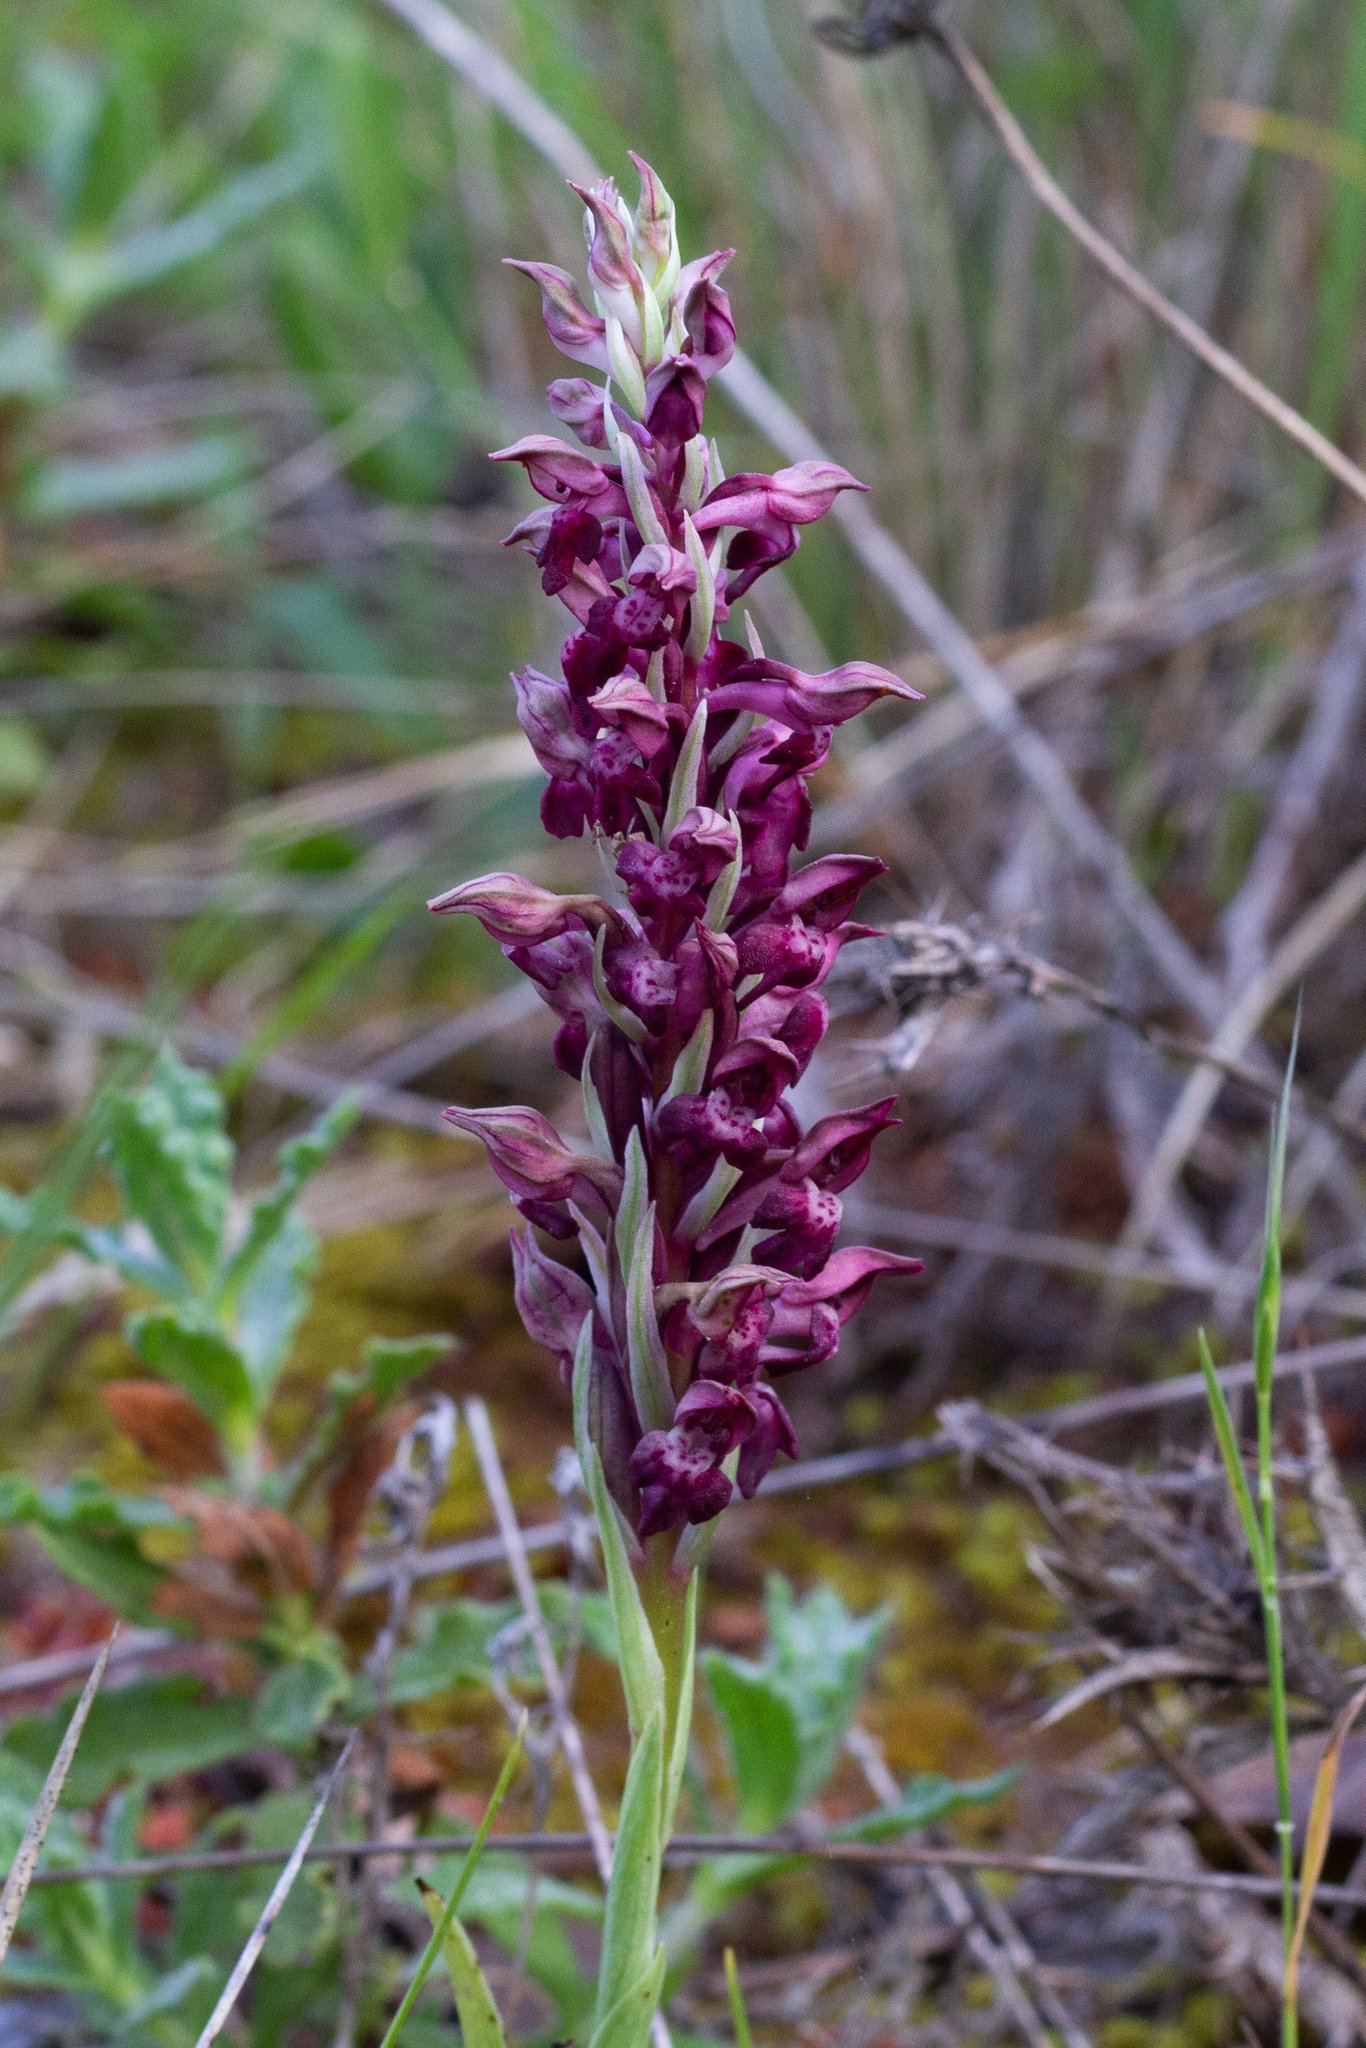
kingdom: Plantae
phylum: Tracheophyta
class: Liliopsida
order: Asparagales
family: Orchidaceae
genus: Anacamptis
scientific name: Anacamptis coriophora
